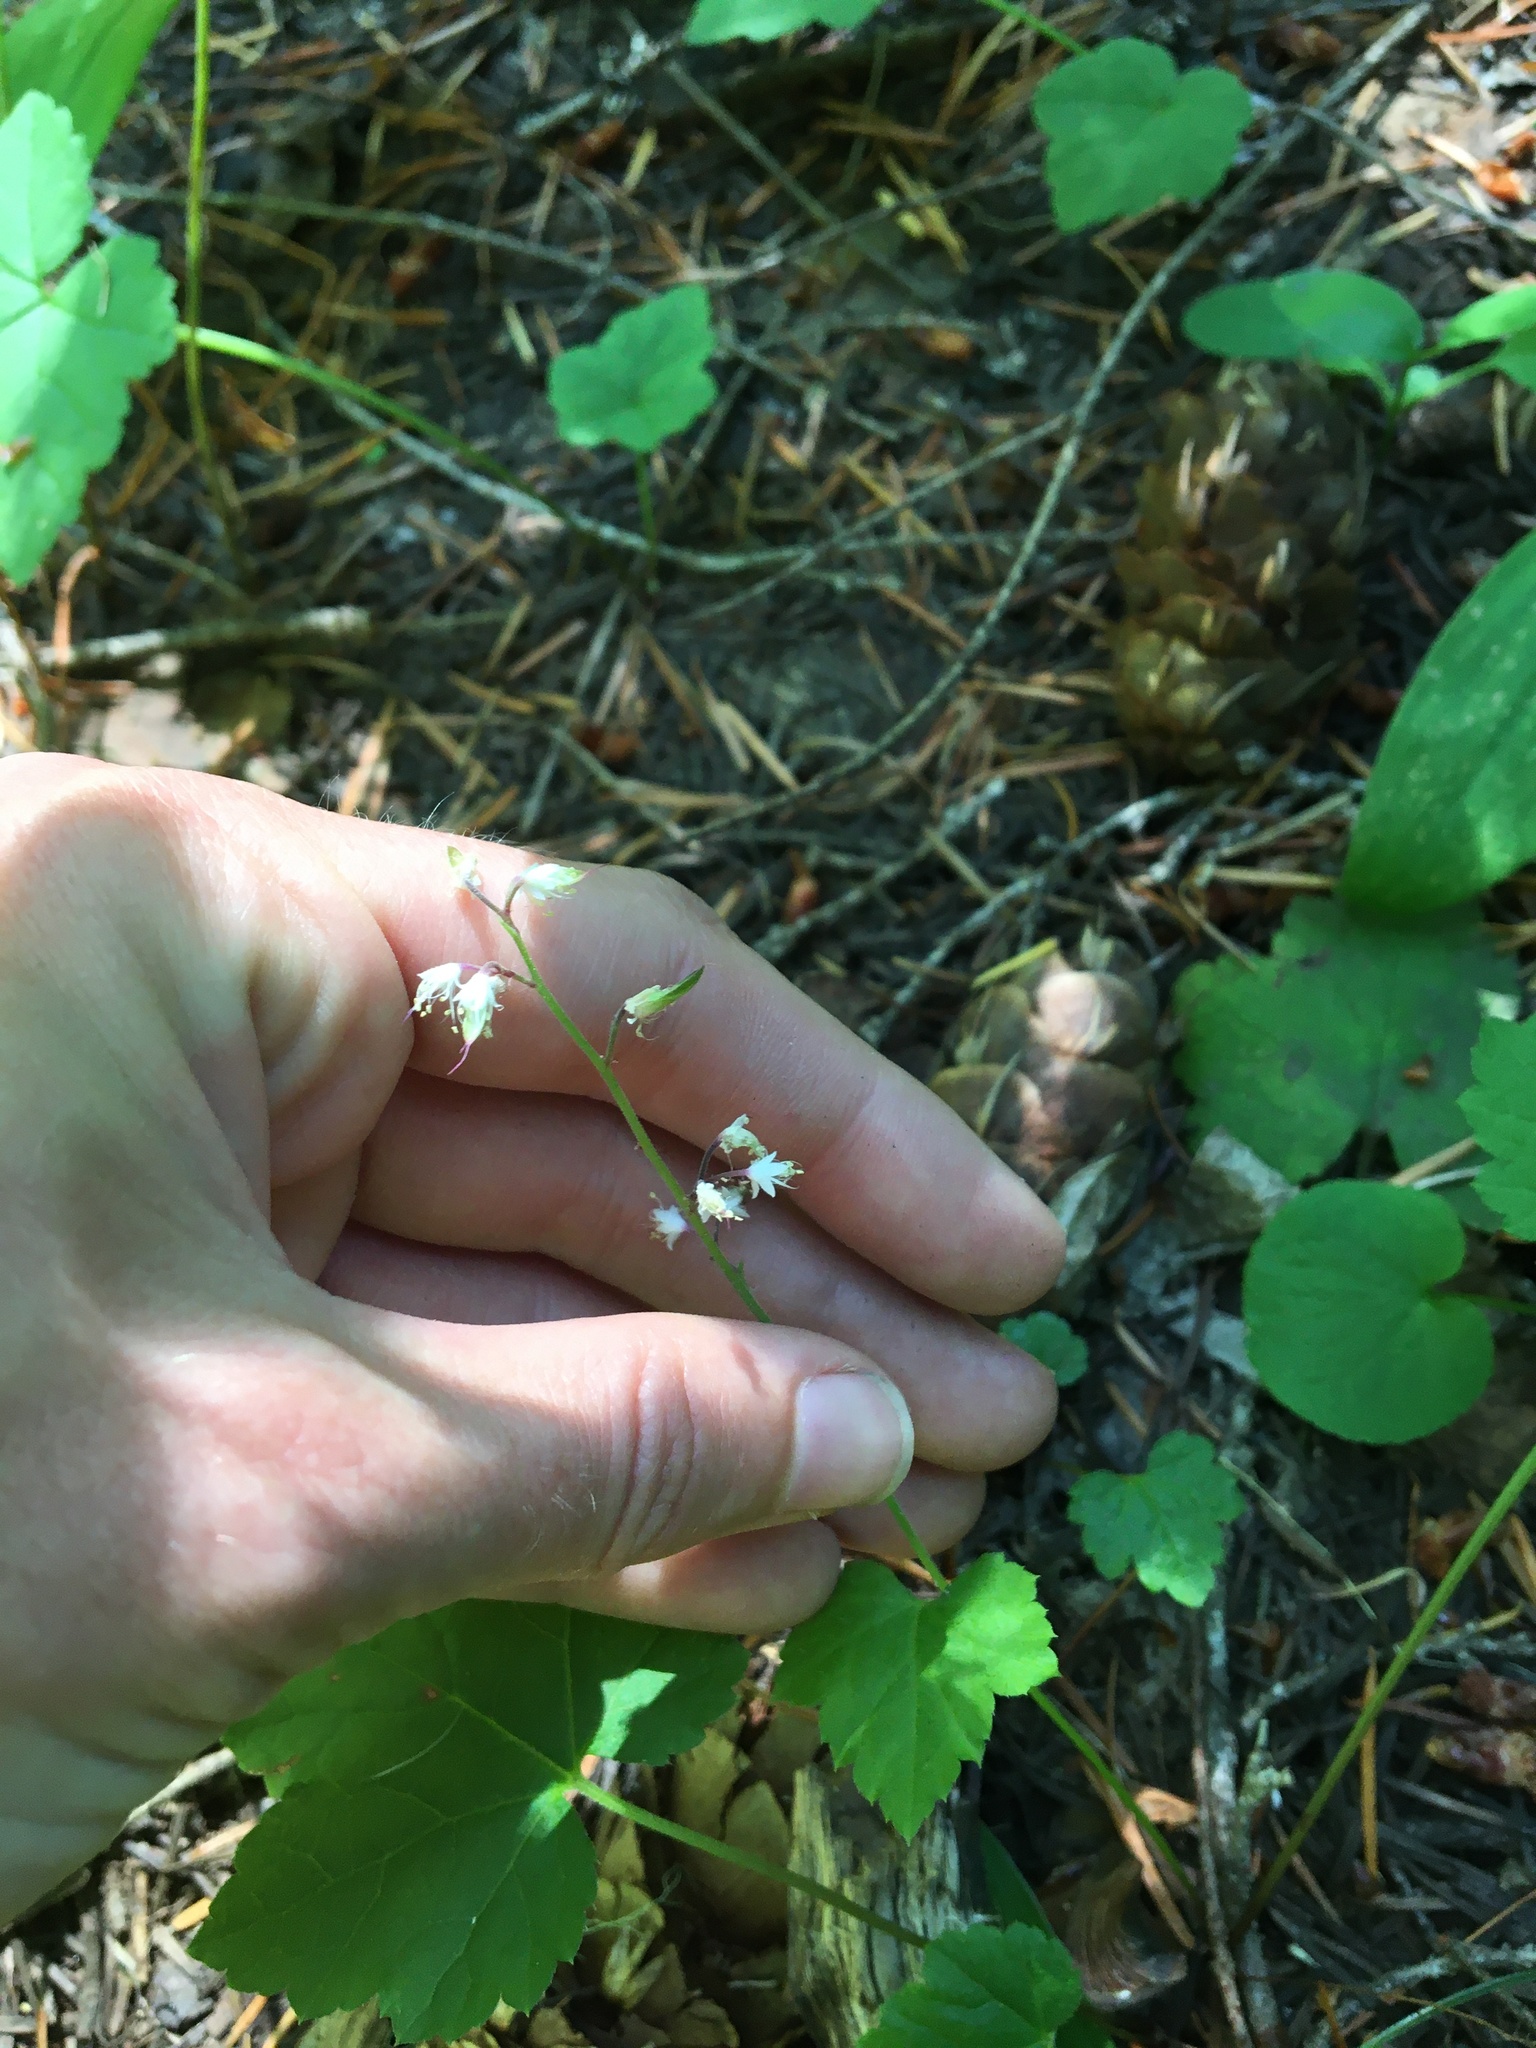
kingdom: Plantae
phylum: Tracheophyta
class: Magnoliopsida
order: Saxifragales
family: Saxifragaceae
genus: Tiarella
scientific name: Tiarella trifoliata
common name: Sugar-scoop
